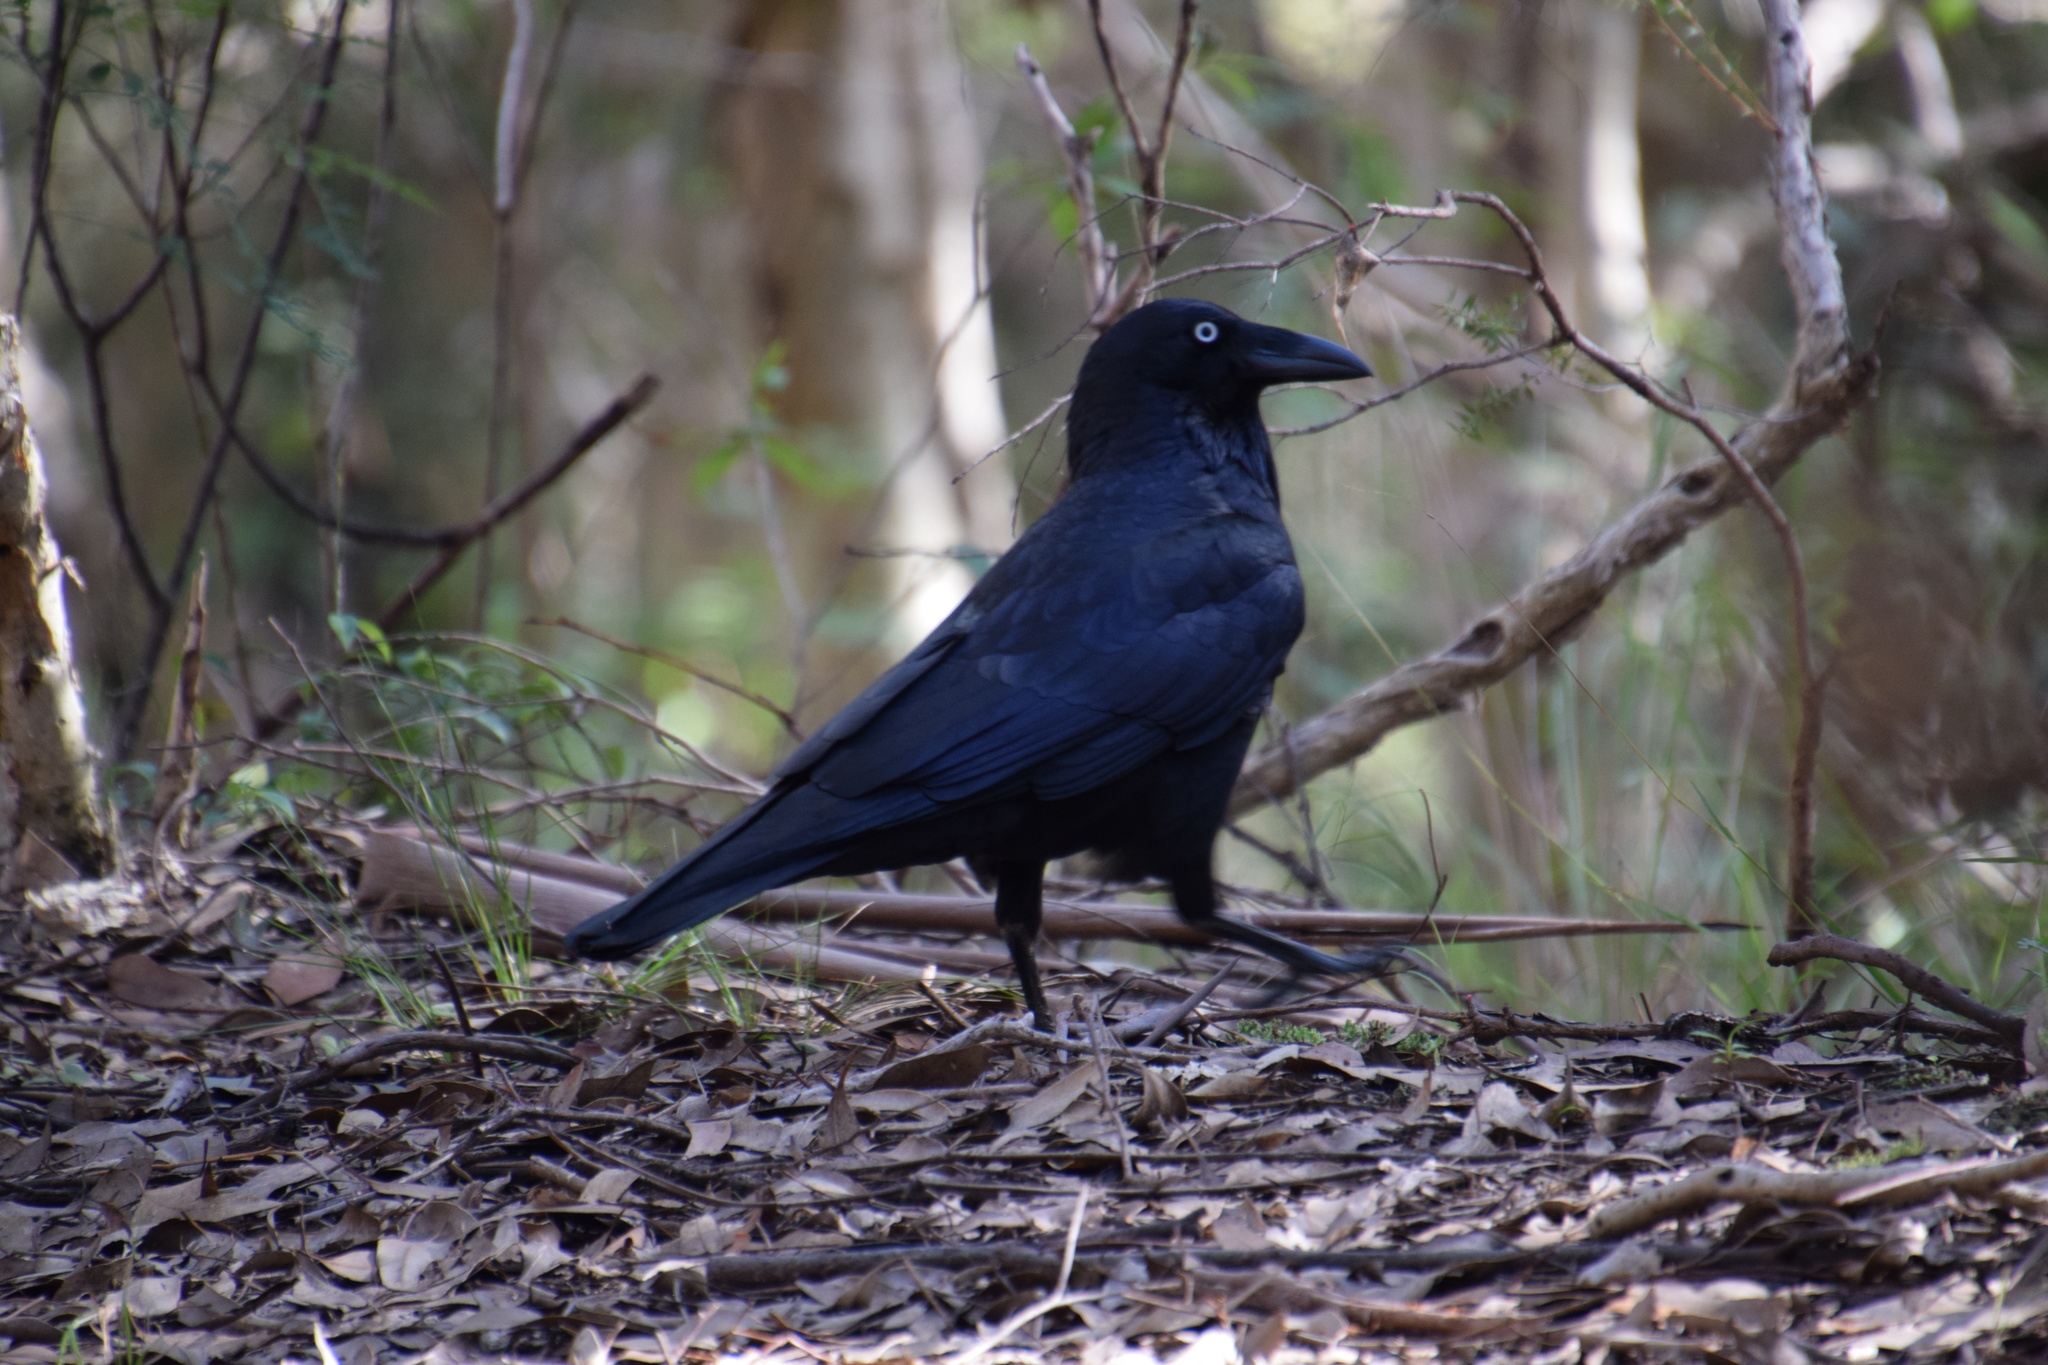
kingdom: Animalia
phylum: Chordata
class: Aves
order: Passeriformes
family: Corvidae
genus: Corvus
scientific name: Corvus coronoides
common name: Australian raven
